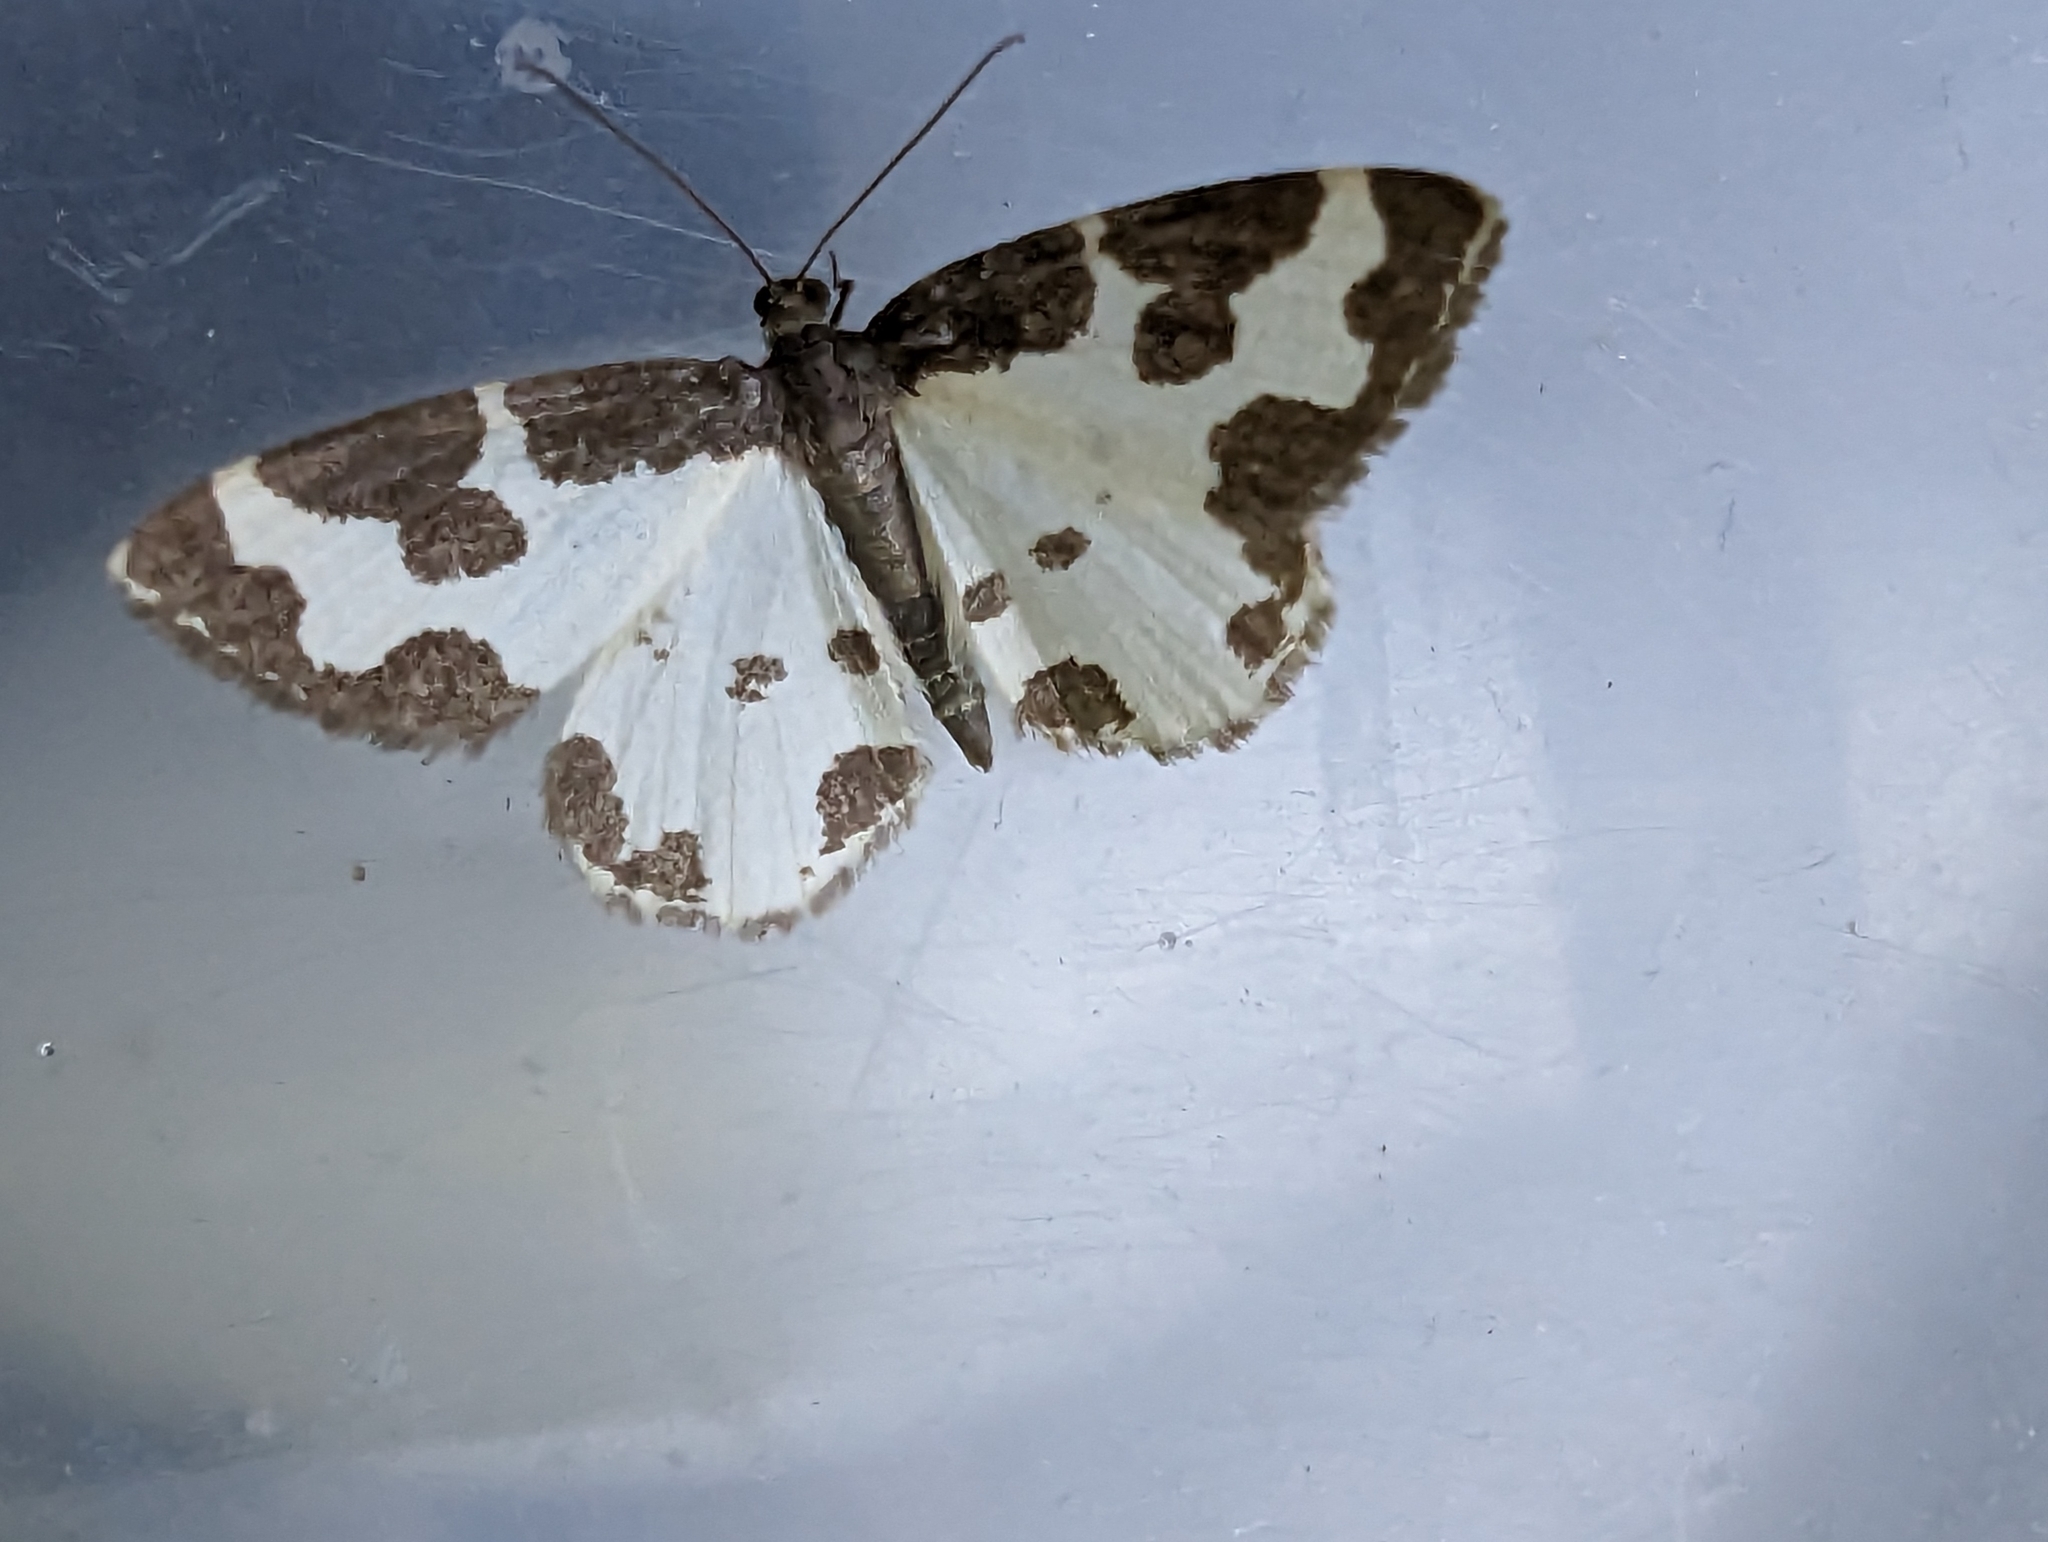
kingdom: Animalia
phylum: Arthropoda
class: Insecta
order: Lepidoptera
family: Geometridae
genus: Lomaspilis
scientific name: Lomaspilis marginata
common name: Clouded border
